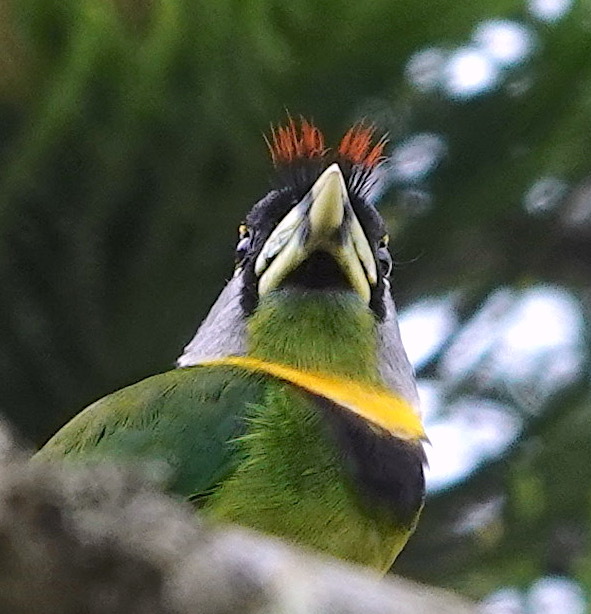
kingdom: Animalia
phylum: Chordata
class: Aves
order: Piciformes
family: Megalaimidae
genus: Psilopogon
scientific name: Psilopogon pyrolophus
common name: Fire-tufted barbet
